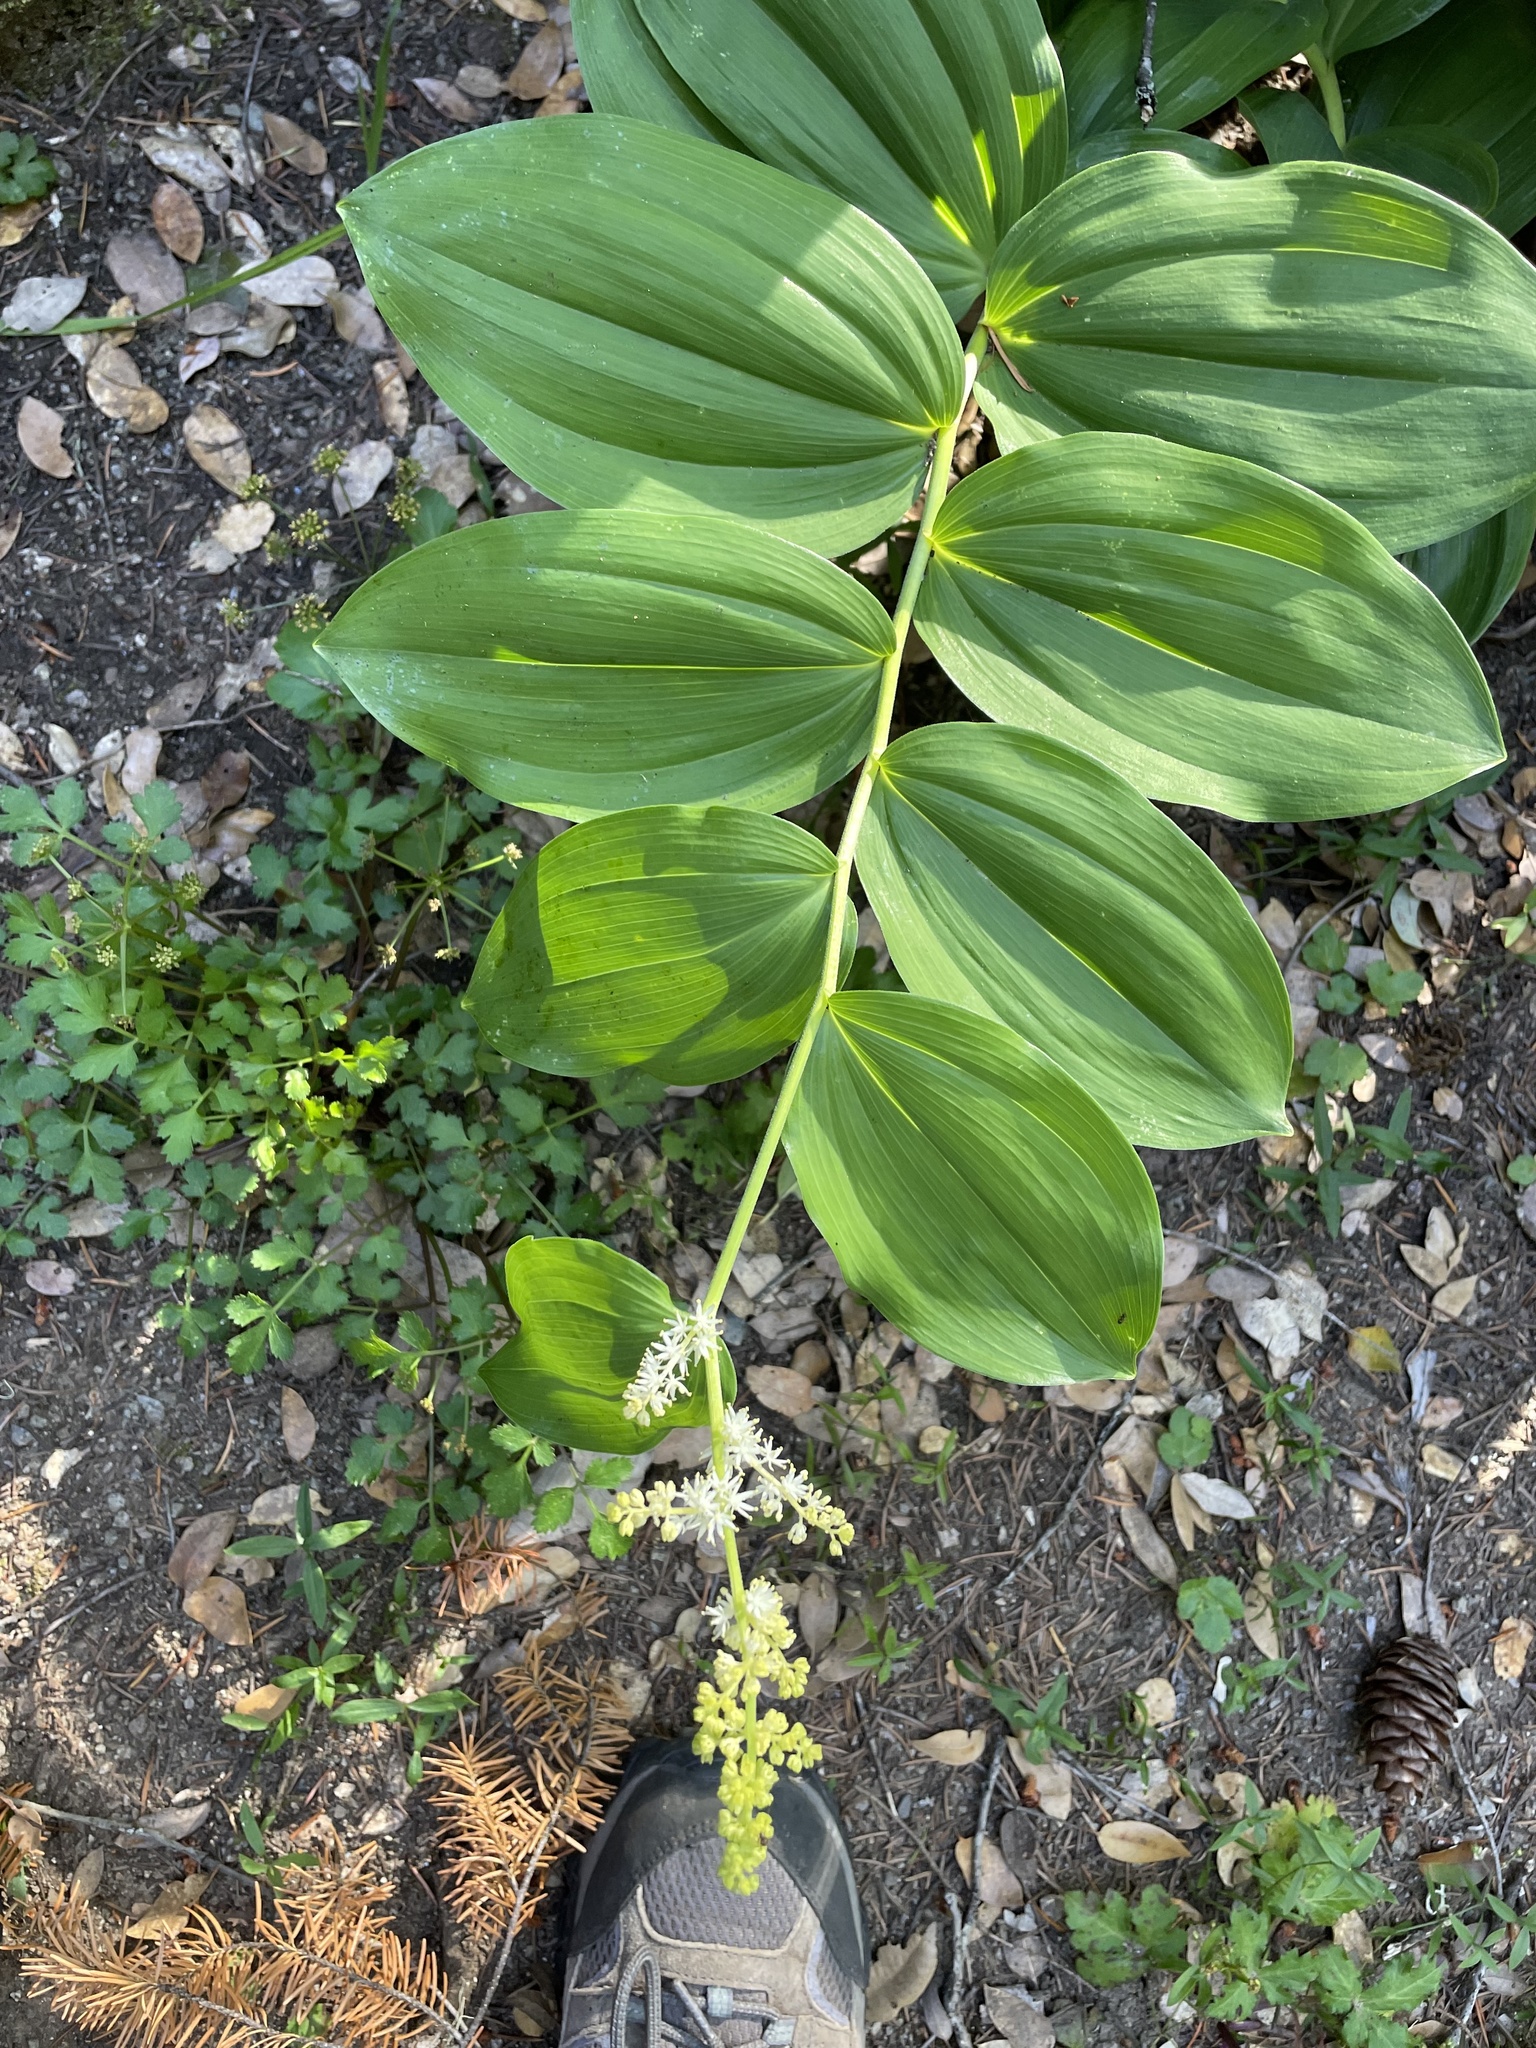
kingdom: Plantae
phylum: Tracheophyta
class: Liliopsida
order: Asparagales
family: Asparagaceae
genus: Maianthemum
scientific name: Maianthemum racemosum
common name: False spikenard
